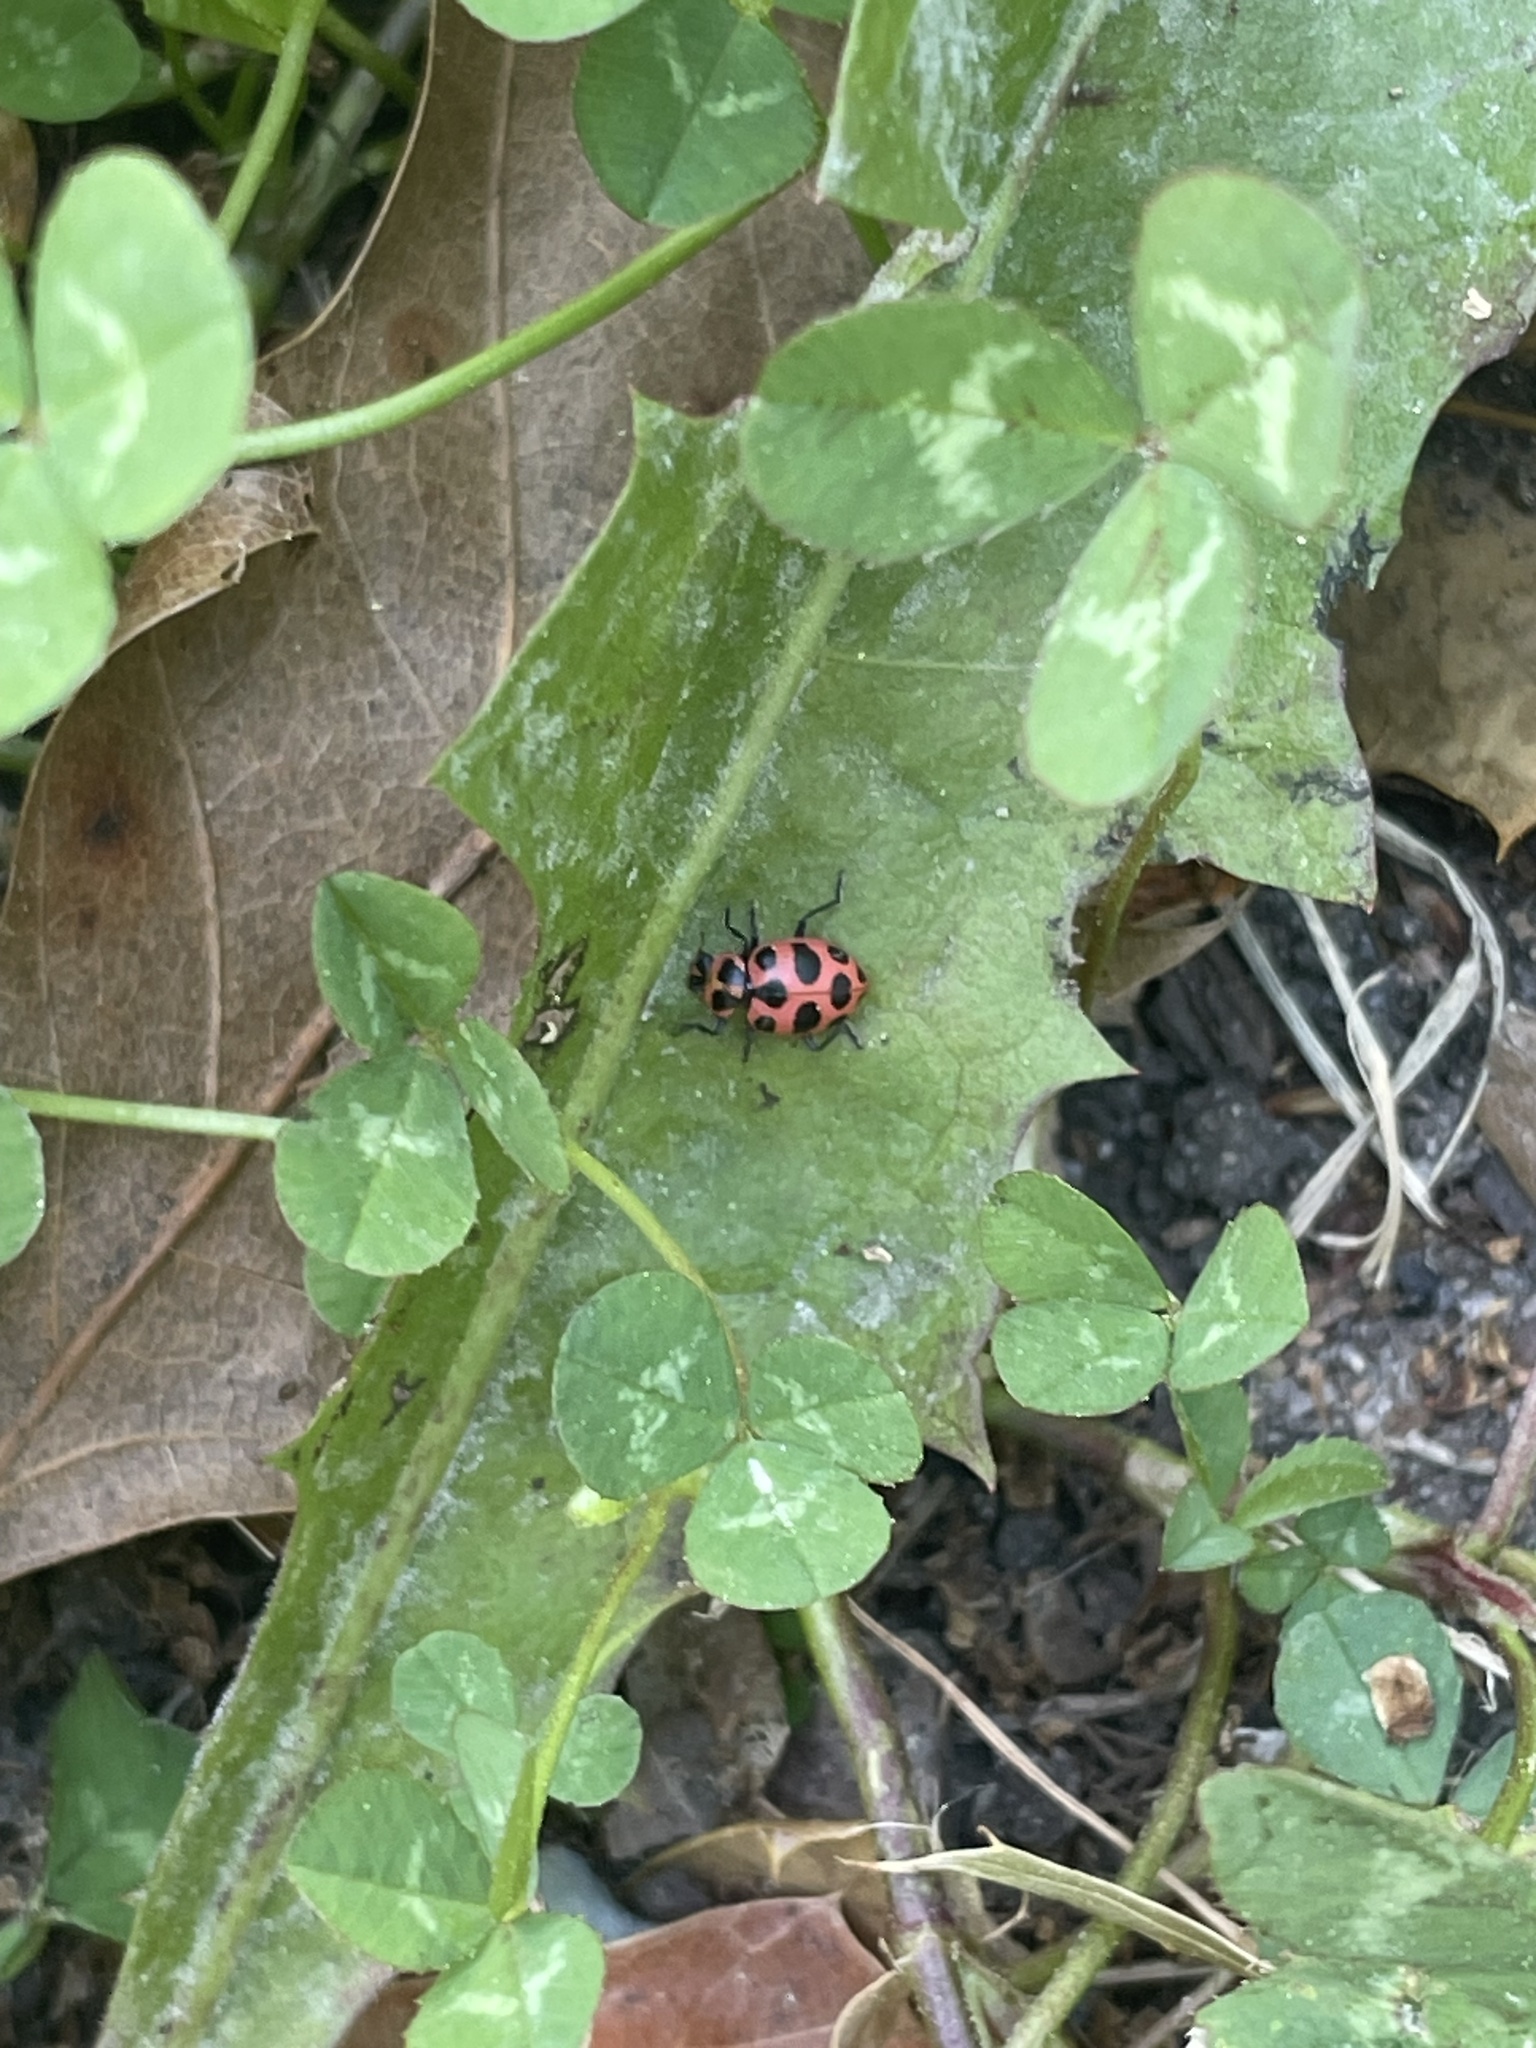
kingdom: Animalia
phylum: Arthropoda
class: Insecta
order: Coleoptera
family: Coccinellidae
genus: Coleomegilla
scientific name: Coleomegilla maculata
